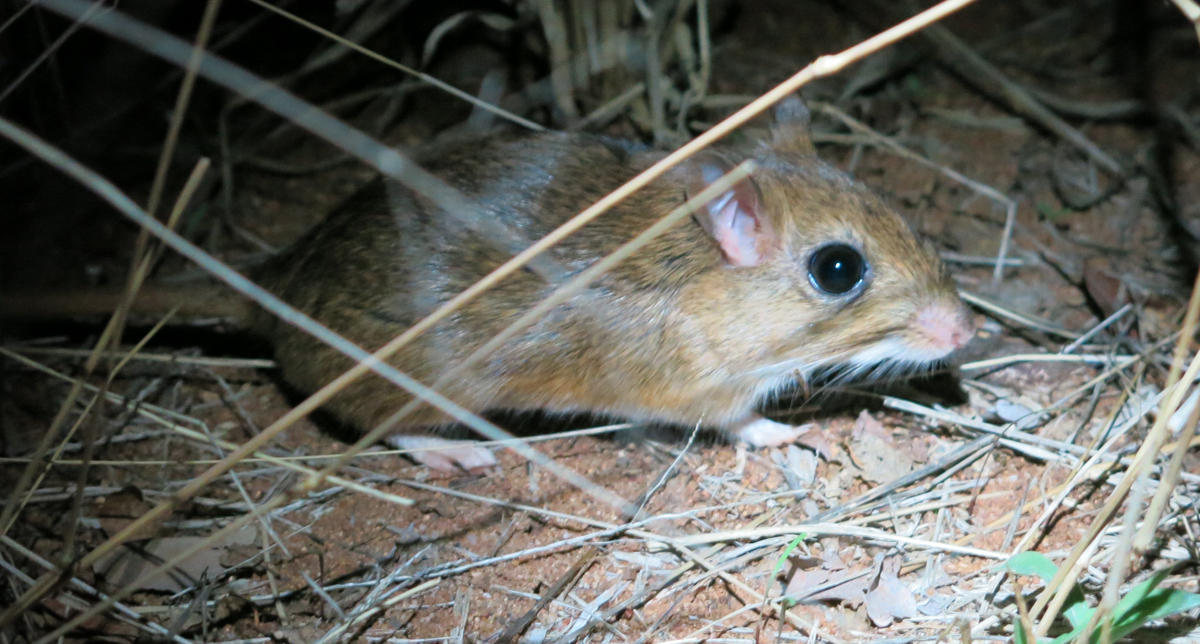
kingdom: Animalia
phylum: Chordata
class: Mammalia
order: Rodentia
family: Muridae
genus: Gerbilliscus
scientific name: Gerbilliscus leucogaster
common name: Bushveld gerbil
